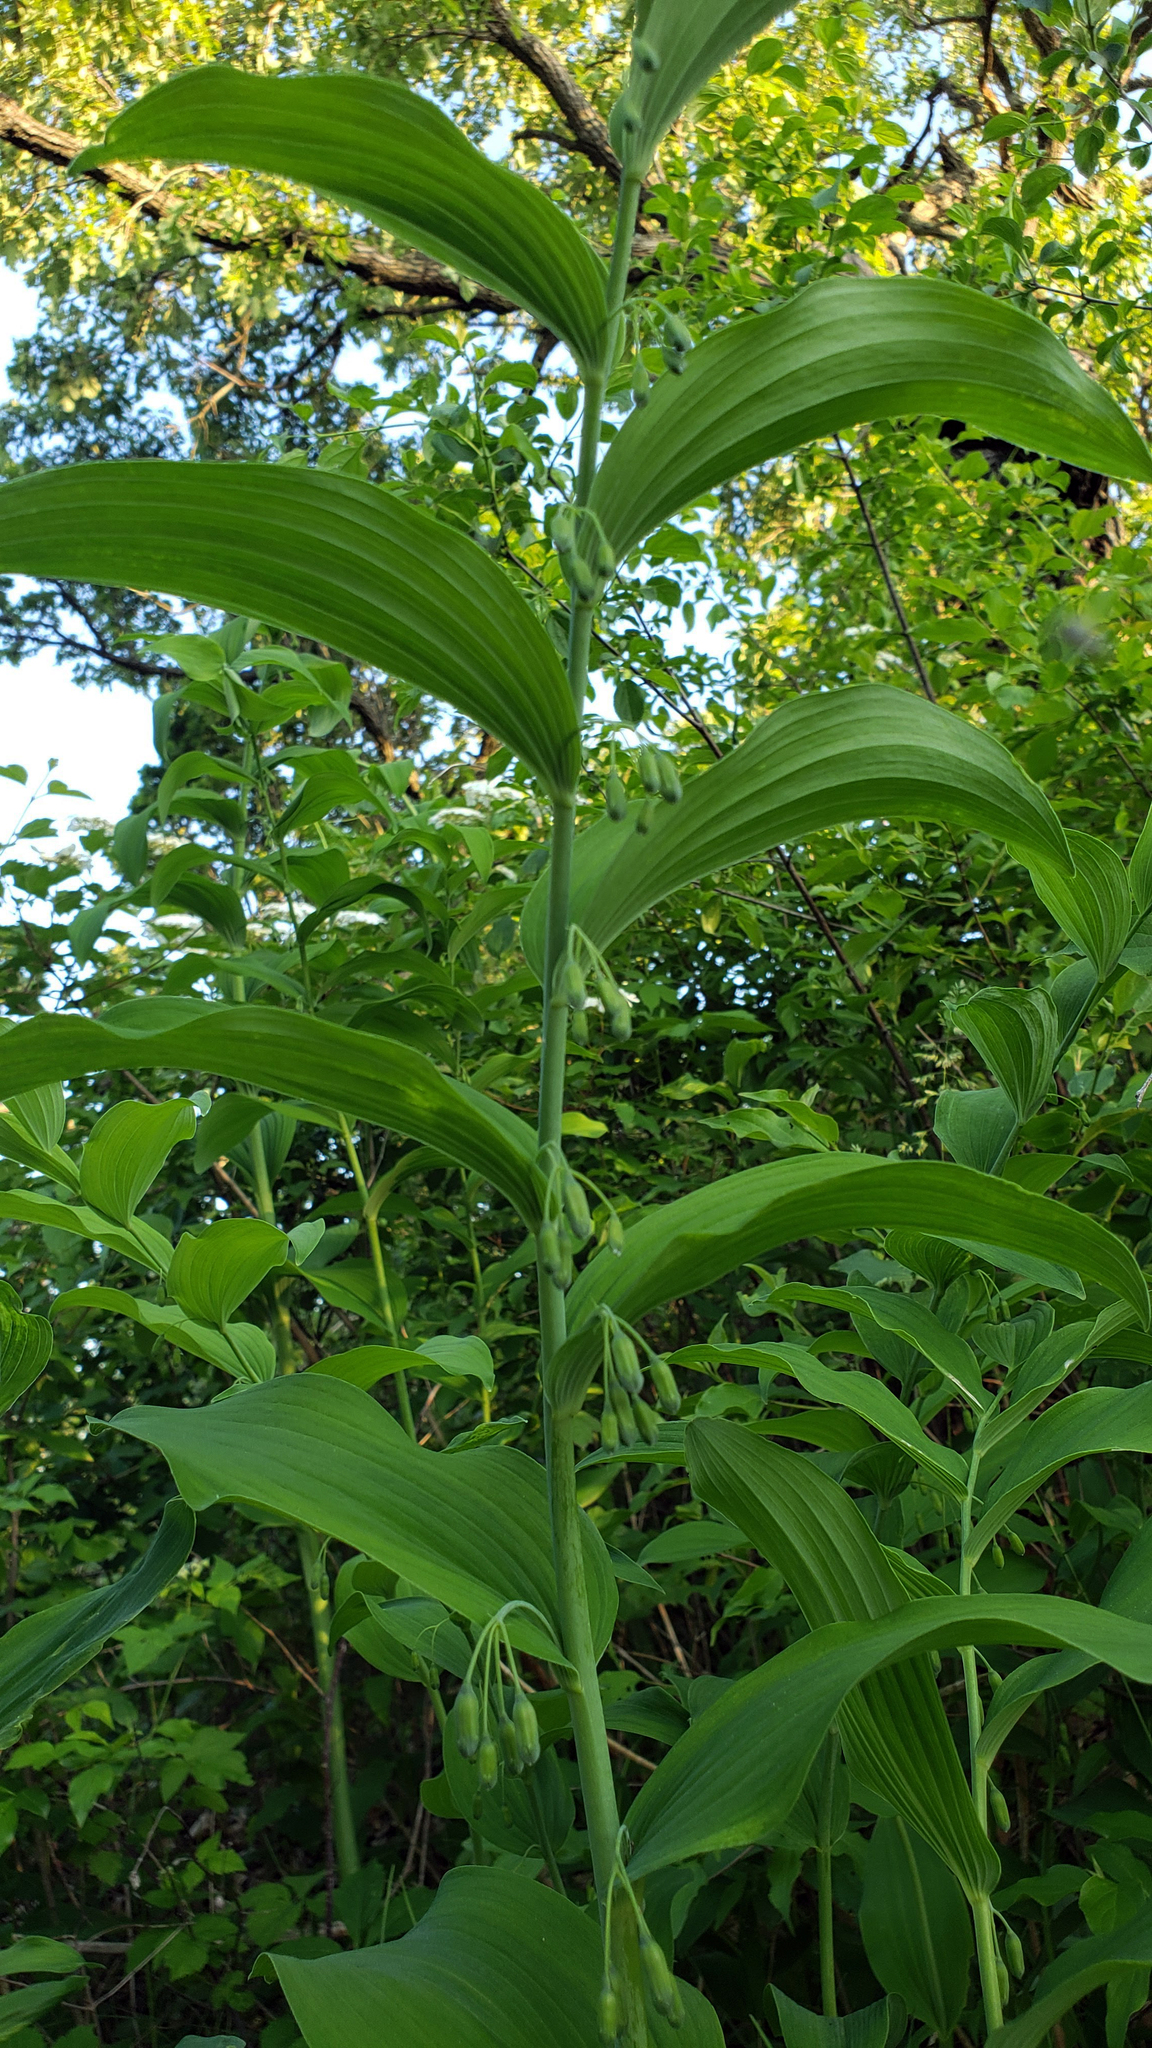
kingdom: Plantae
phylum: Tracheophyta
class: Liliopsida
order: Asparagales
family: Asparagaceae
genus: Polygonatum
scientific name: Polygonatum biflorum
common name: American solomon's-seal
